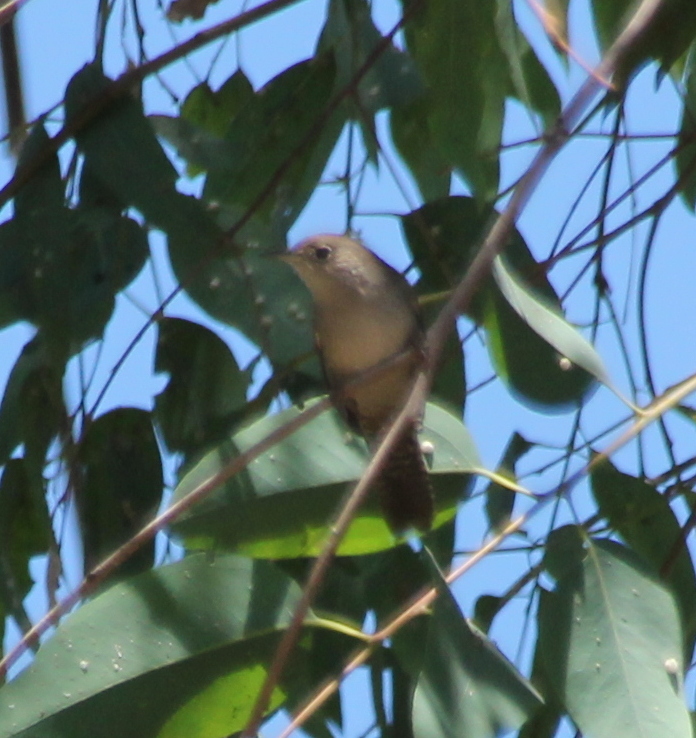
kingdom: Animalia
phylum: Chordata
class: Aves
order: Passeriformes
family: Troglodytidae
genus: Troglodytes
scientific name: Troglodytes aedon
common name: House wren
